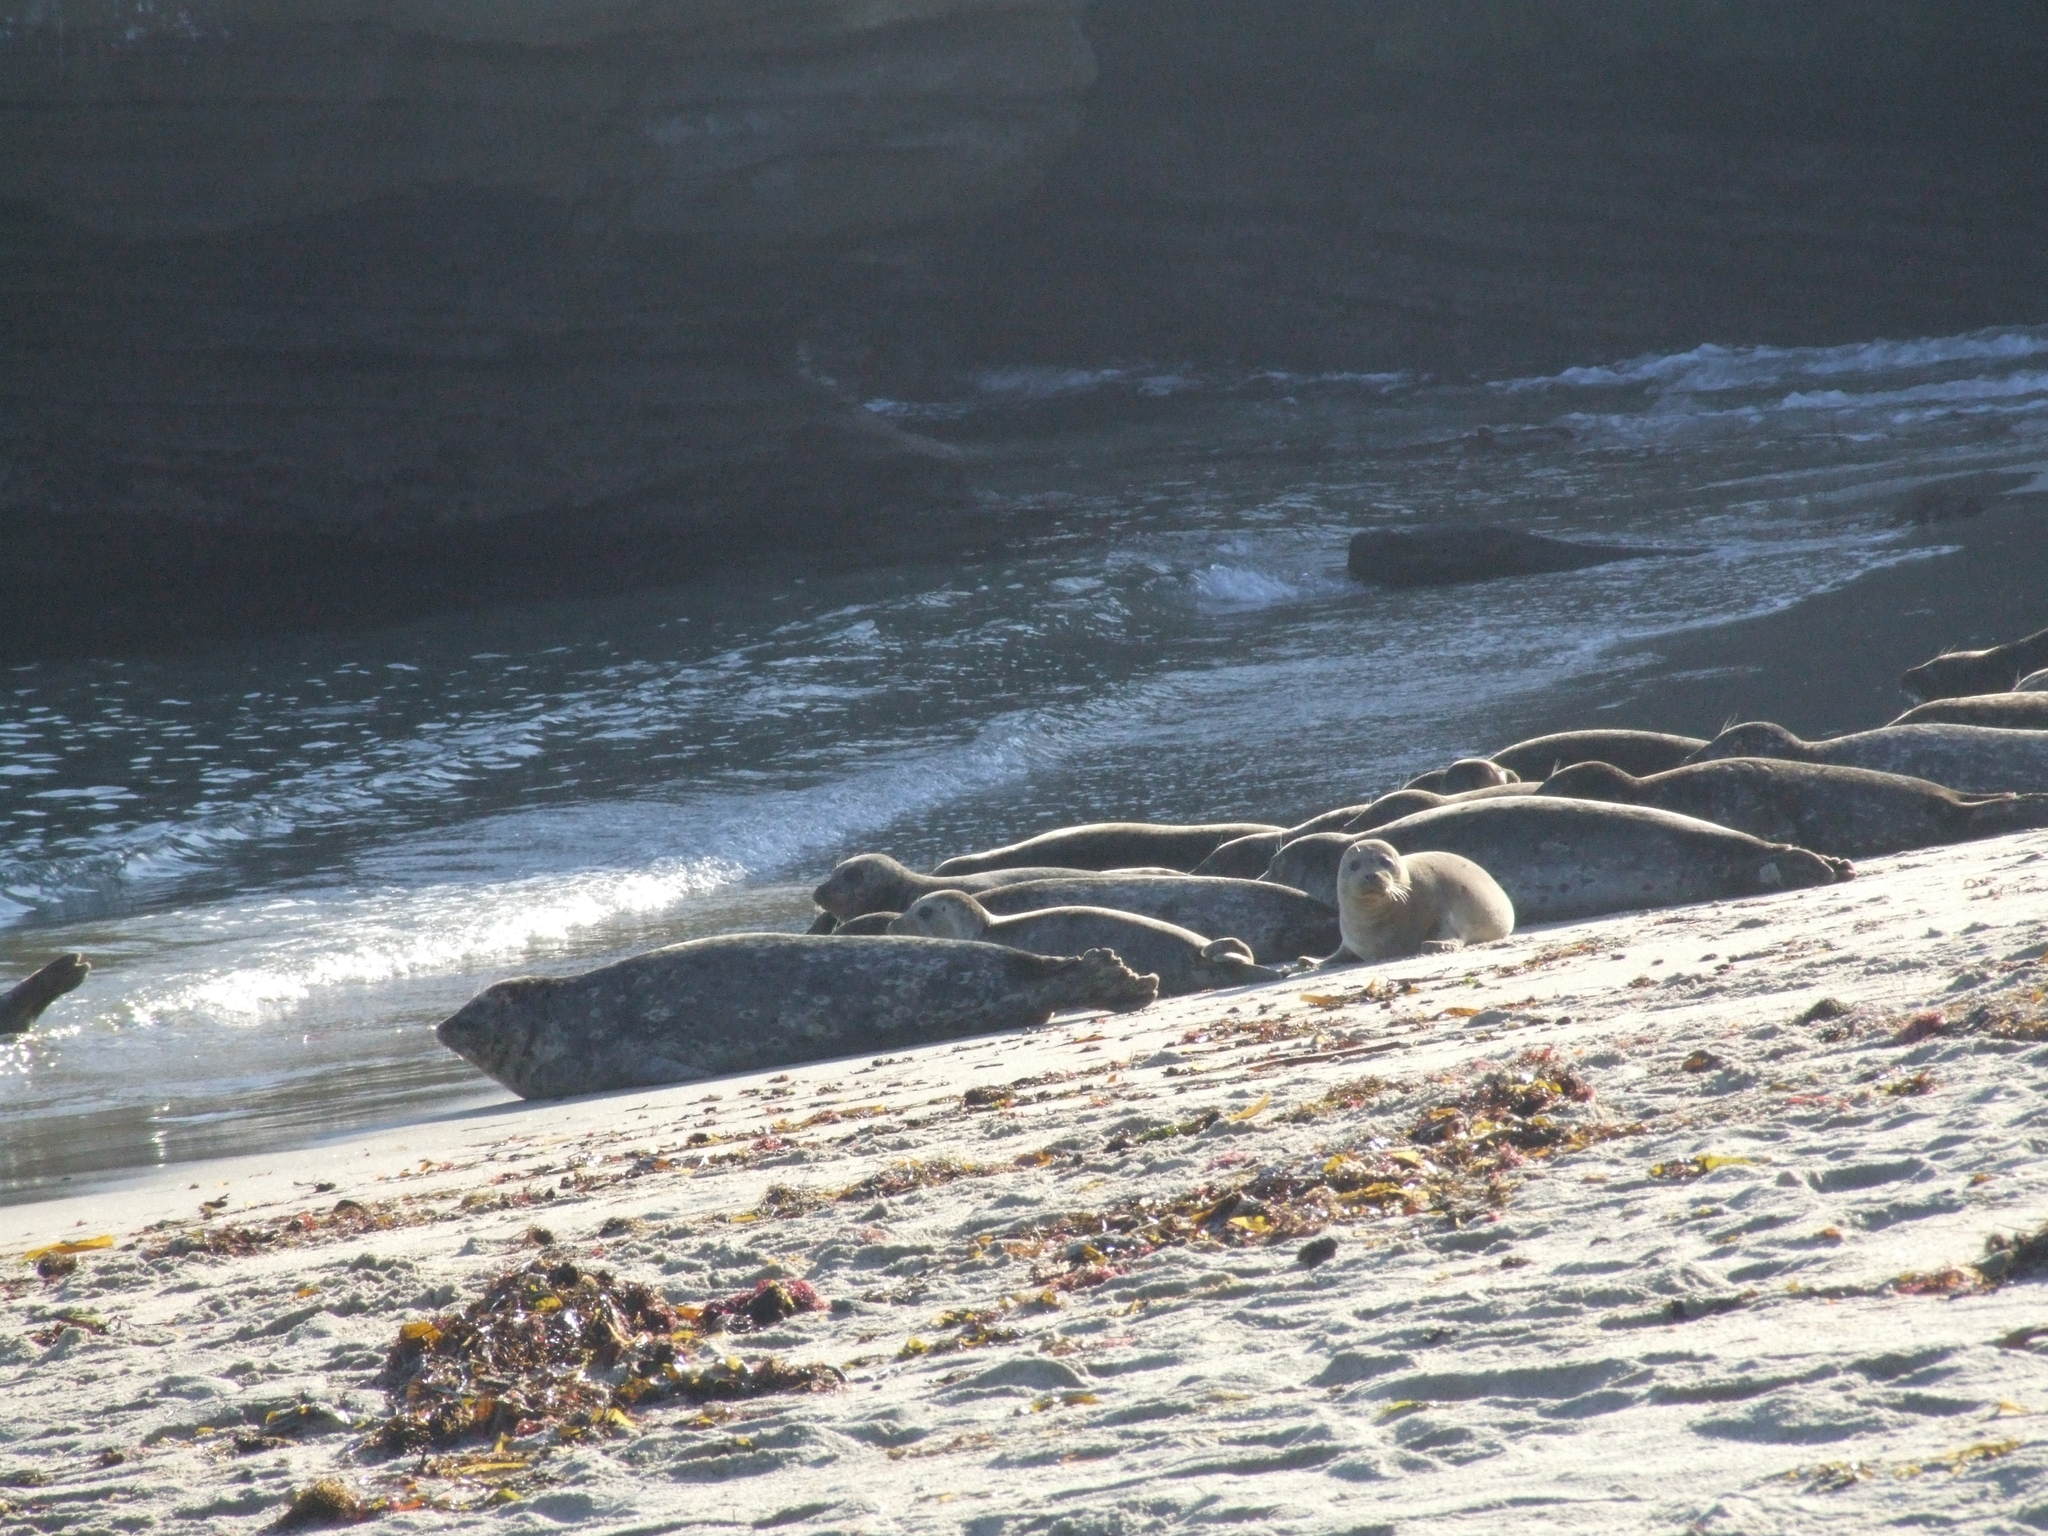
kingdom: Animalia
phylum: Chordata
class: Mammalia
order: Carnivora
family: Phocidae
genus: Phoca
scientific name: Phoca vitulina
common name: Harbor seal
